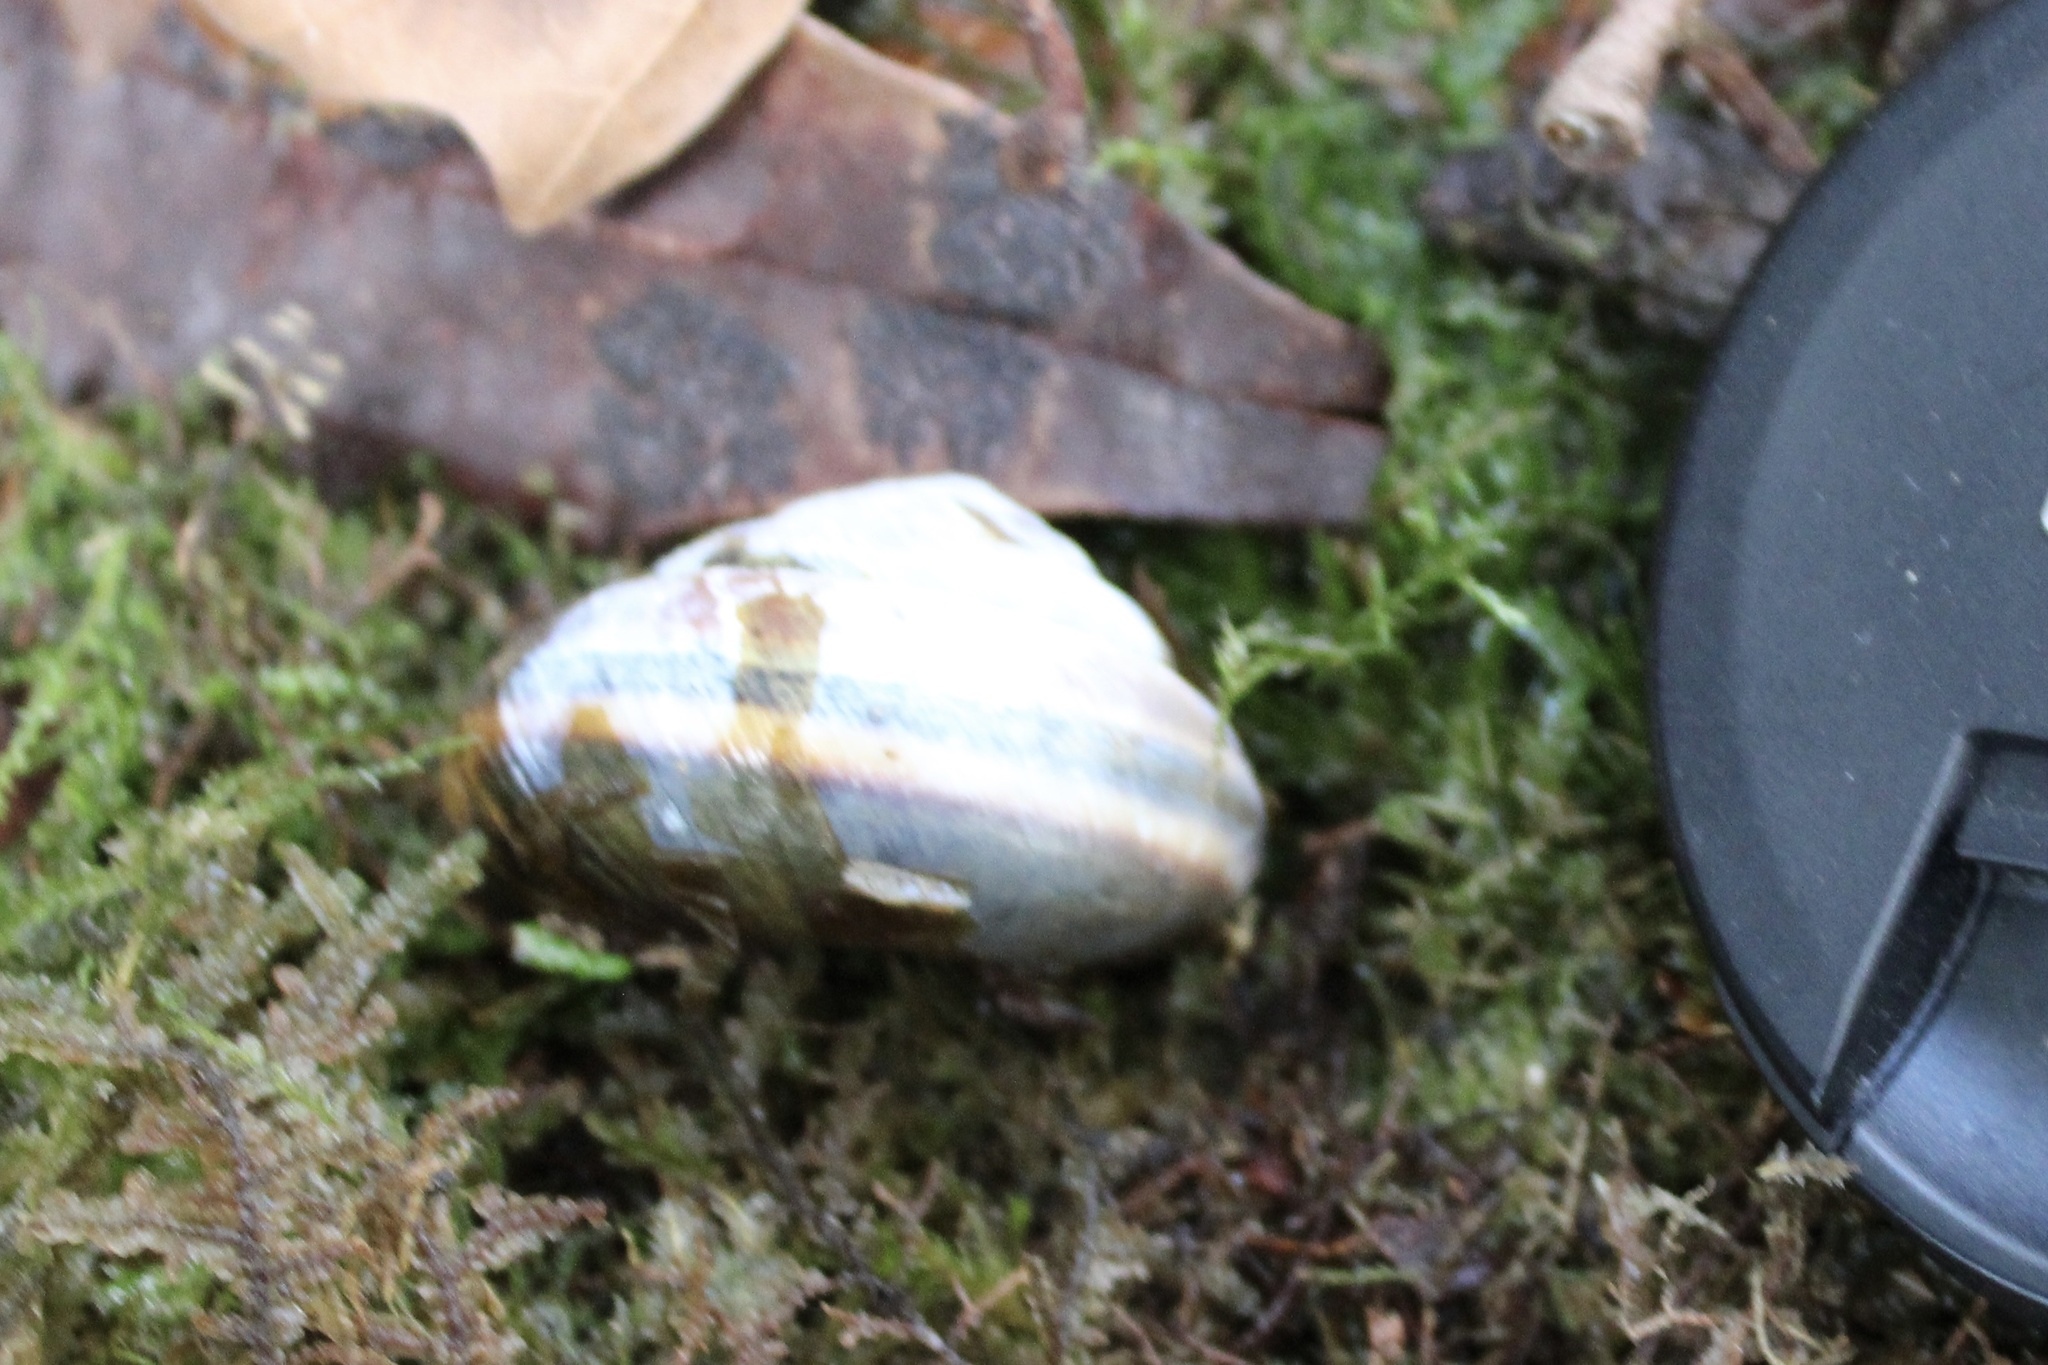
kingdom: Animalia
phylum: Mollusca
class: Gastropoda
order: Stylommatophora
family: Xanthonychidae
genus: Monadenia
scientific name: Monadenia fidelis
